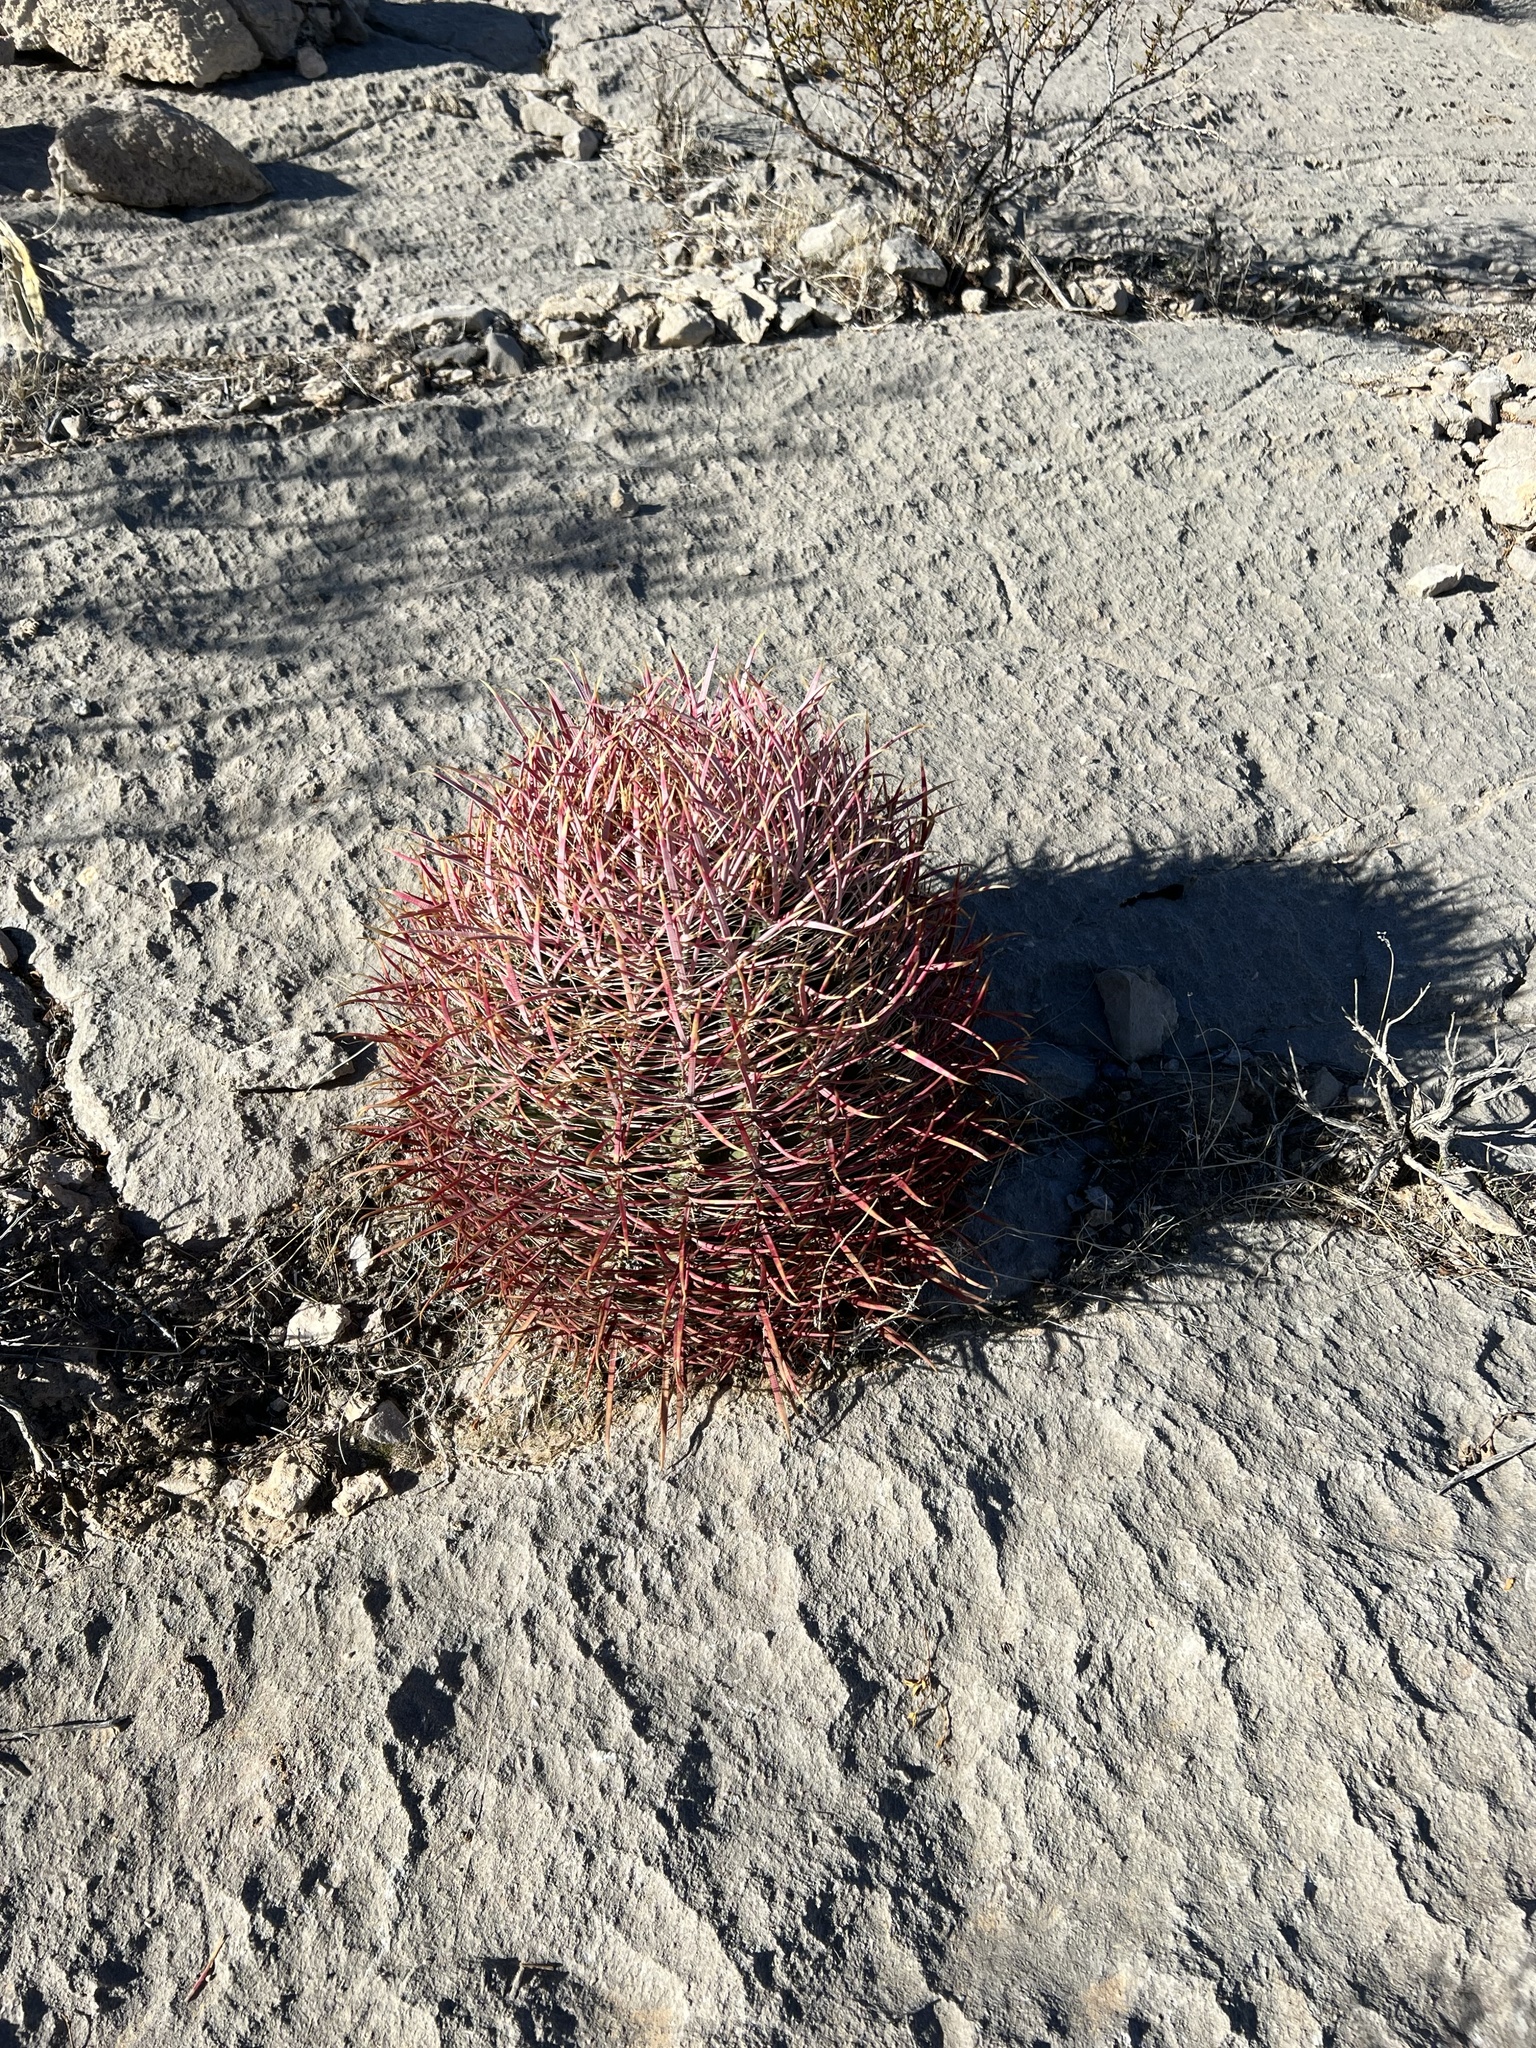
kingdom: Plantae
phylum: Tracheophyta
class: Magnoliopsida
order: Caryophyllales
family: Cactaceae
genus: Ferocactus
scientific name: Ferocactus cylindraceus
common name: California barrel cactus
